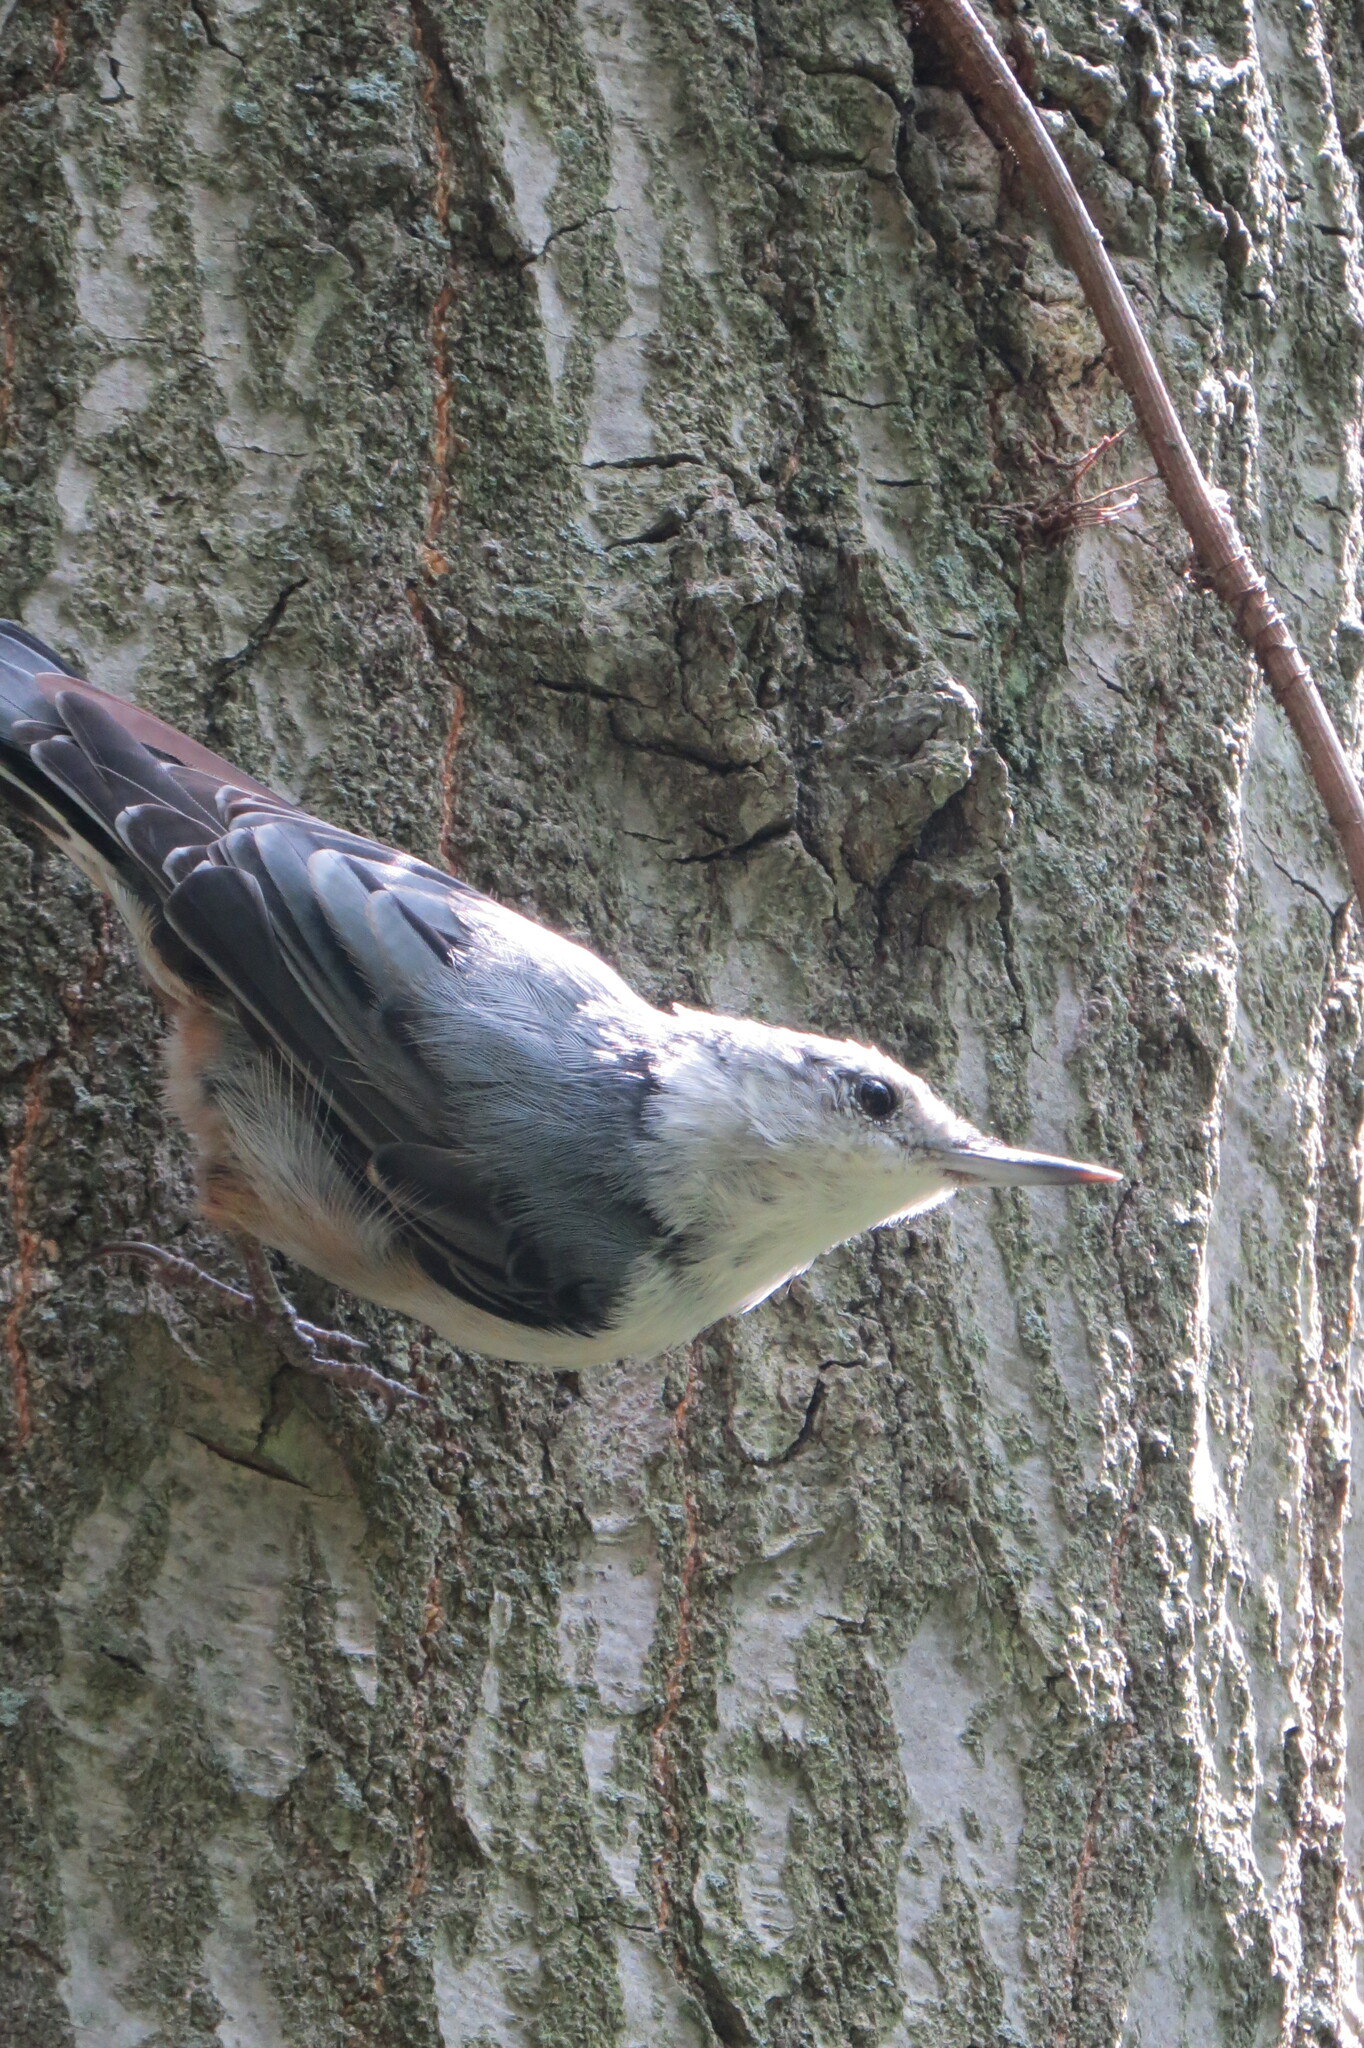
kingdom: Animalia
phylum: Chordata
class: Aves
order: Passeriformes
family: Sittidae
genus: Sitta
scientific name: Sitta carolinensis
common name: White-breasted nuthatch
